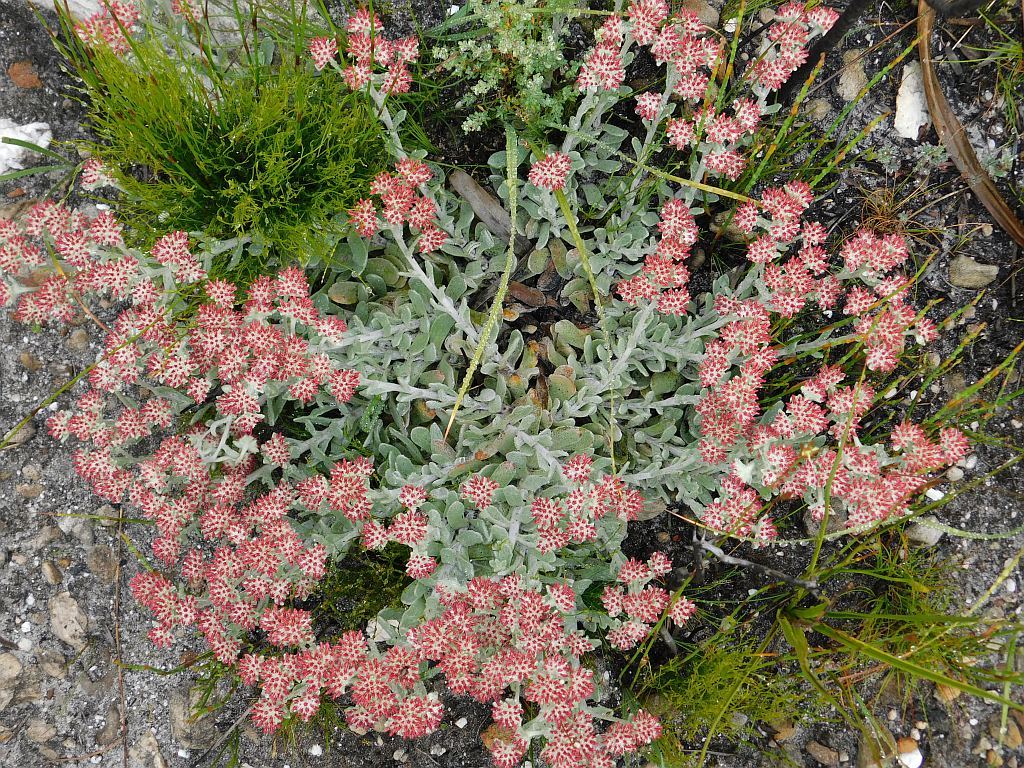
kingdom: Plantae
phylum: Tracheophyta
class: Magnoliopsida
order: Asterales
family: Asteraceae
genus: Helichrysum
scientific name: Helichrysum spiralepis
